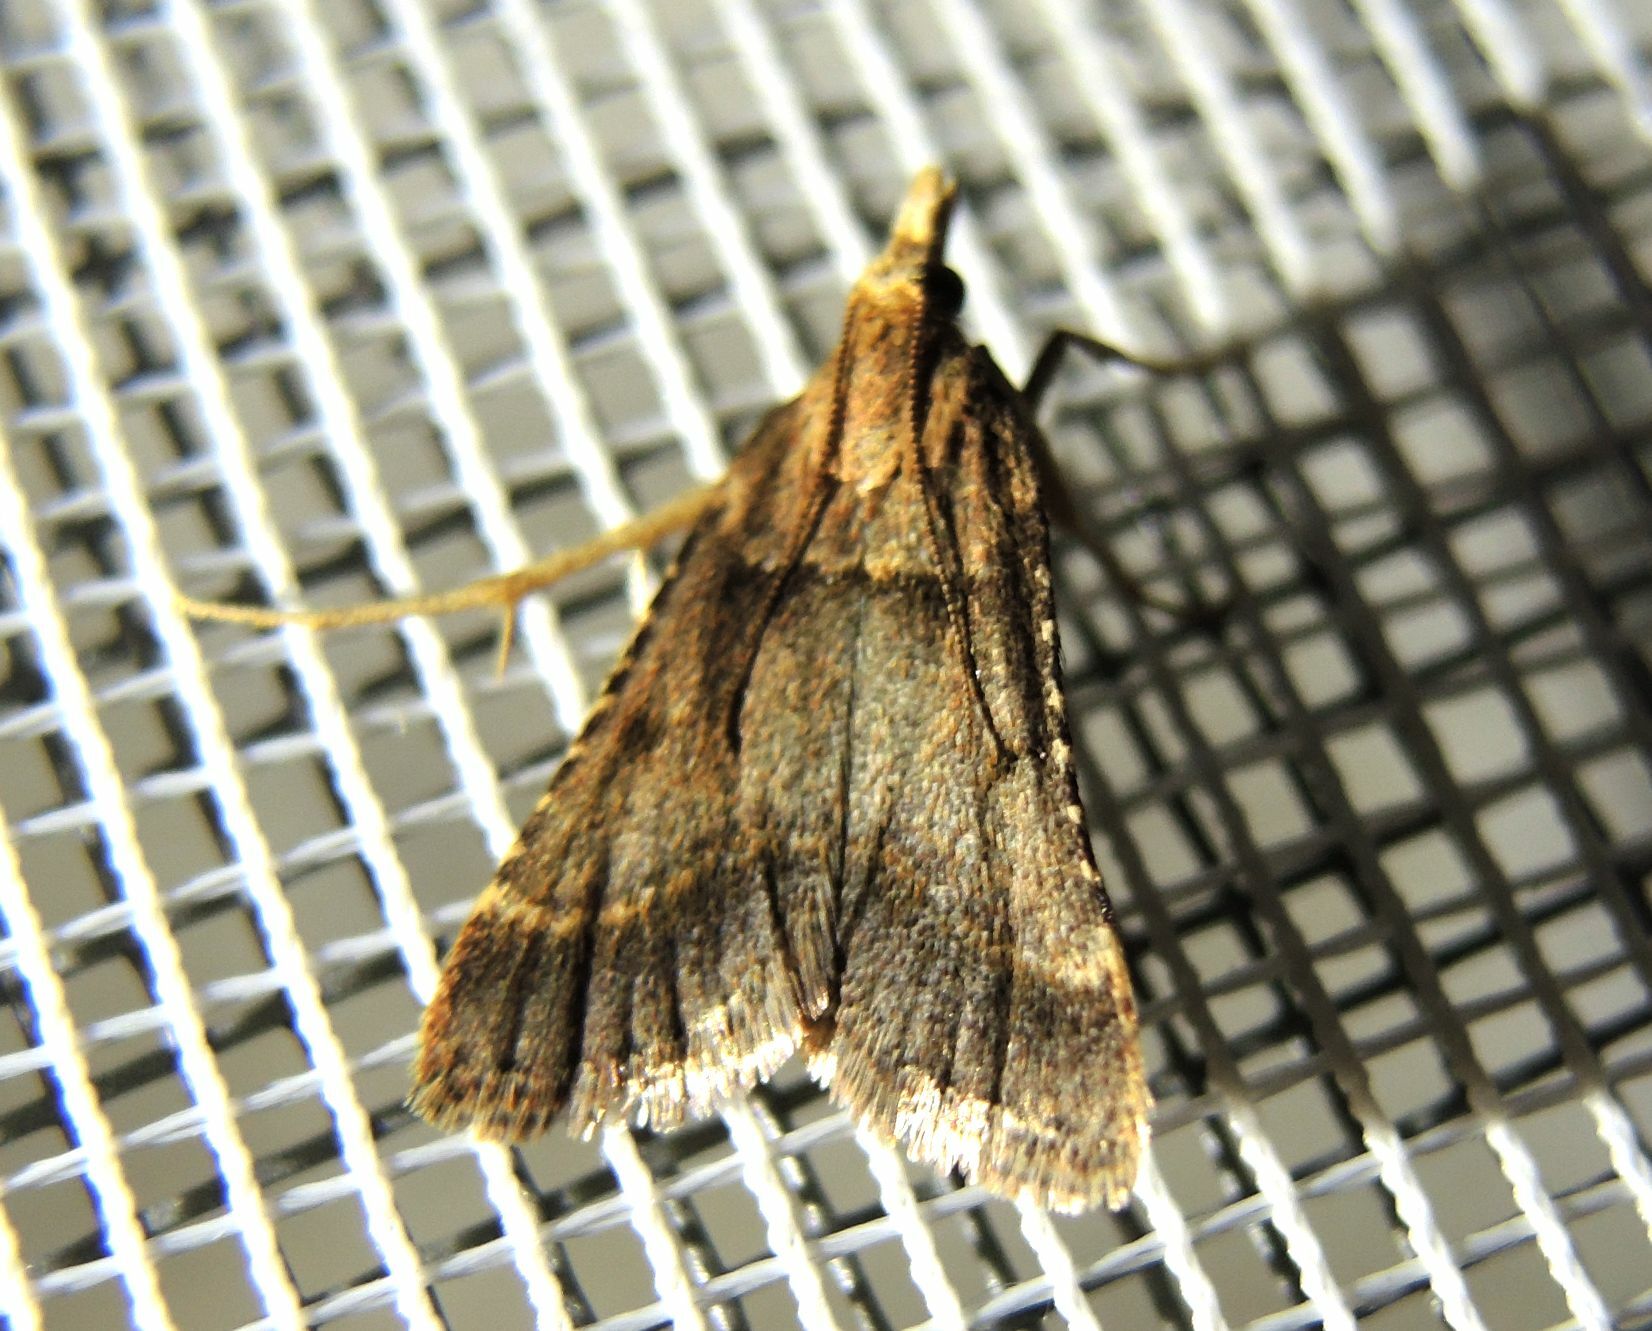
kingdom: Animalia
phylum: Arthropoda
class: Insecta
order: Lepidoptera
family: Pyralidae
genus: Stemmatophora
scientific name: Stemmatophora brunnealis
